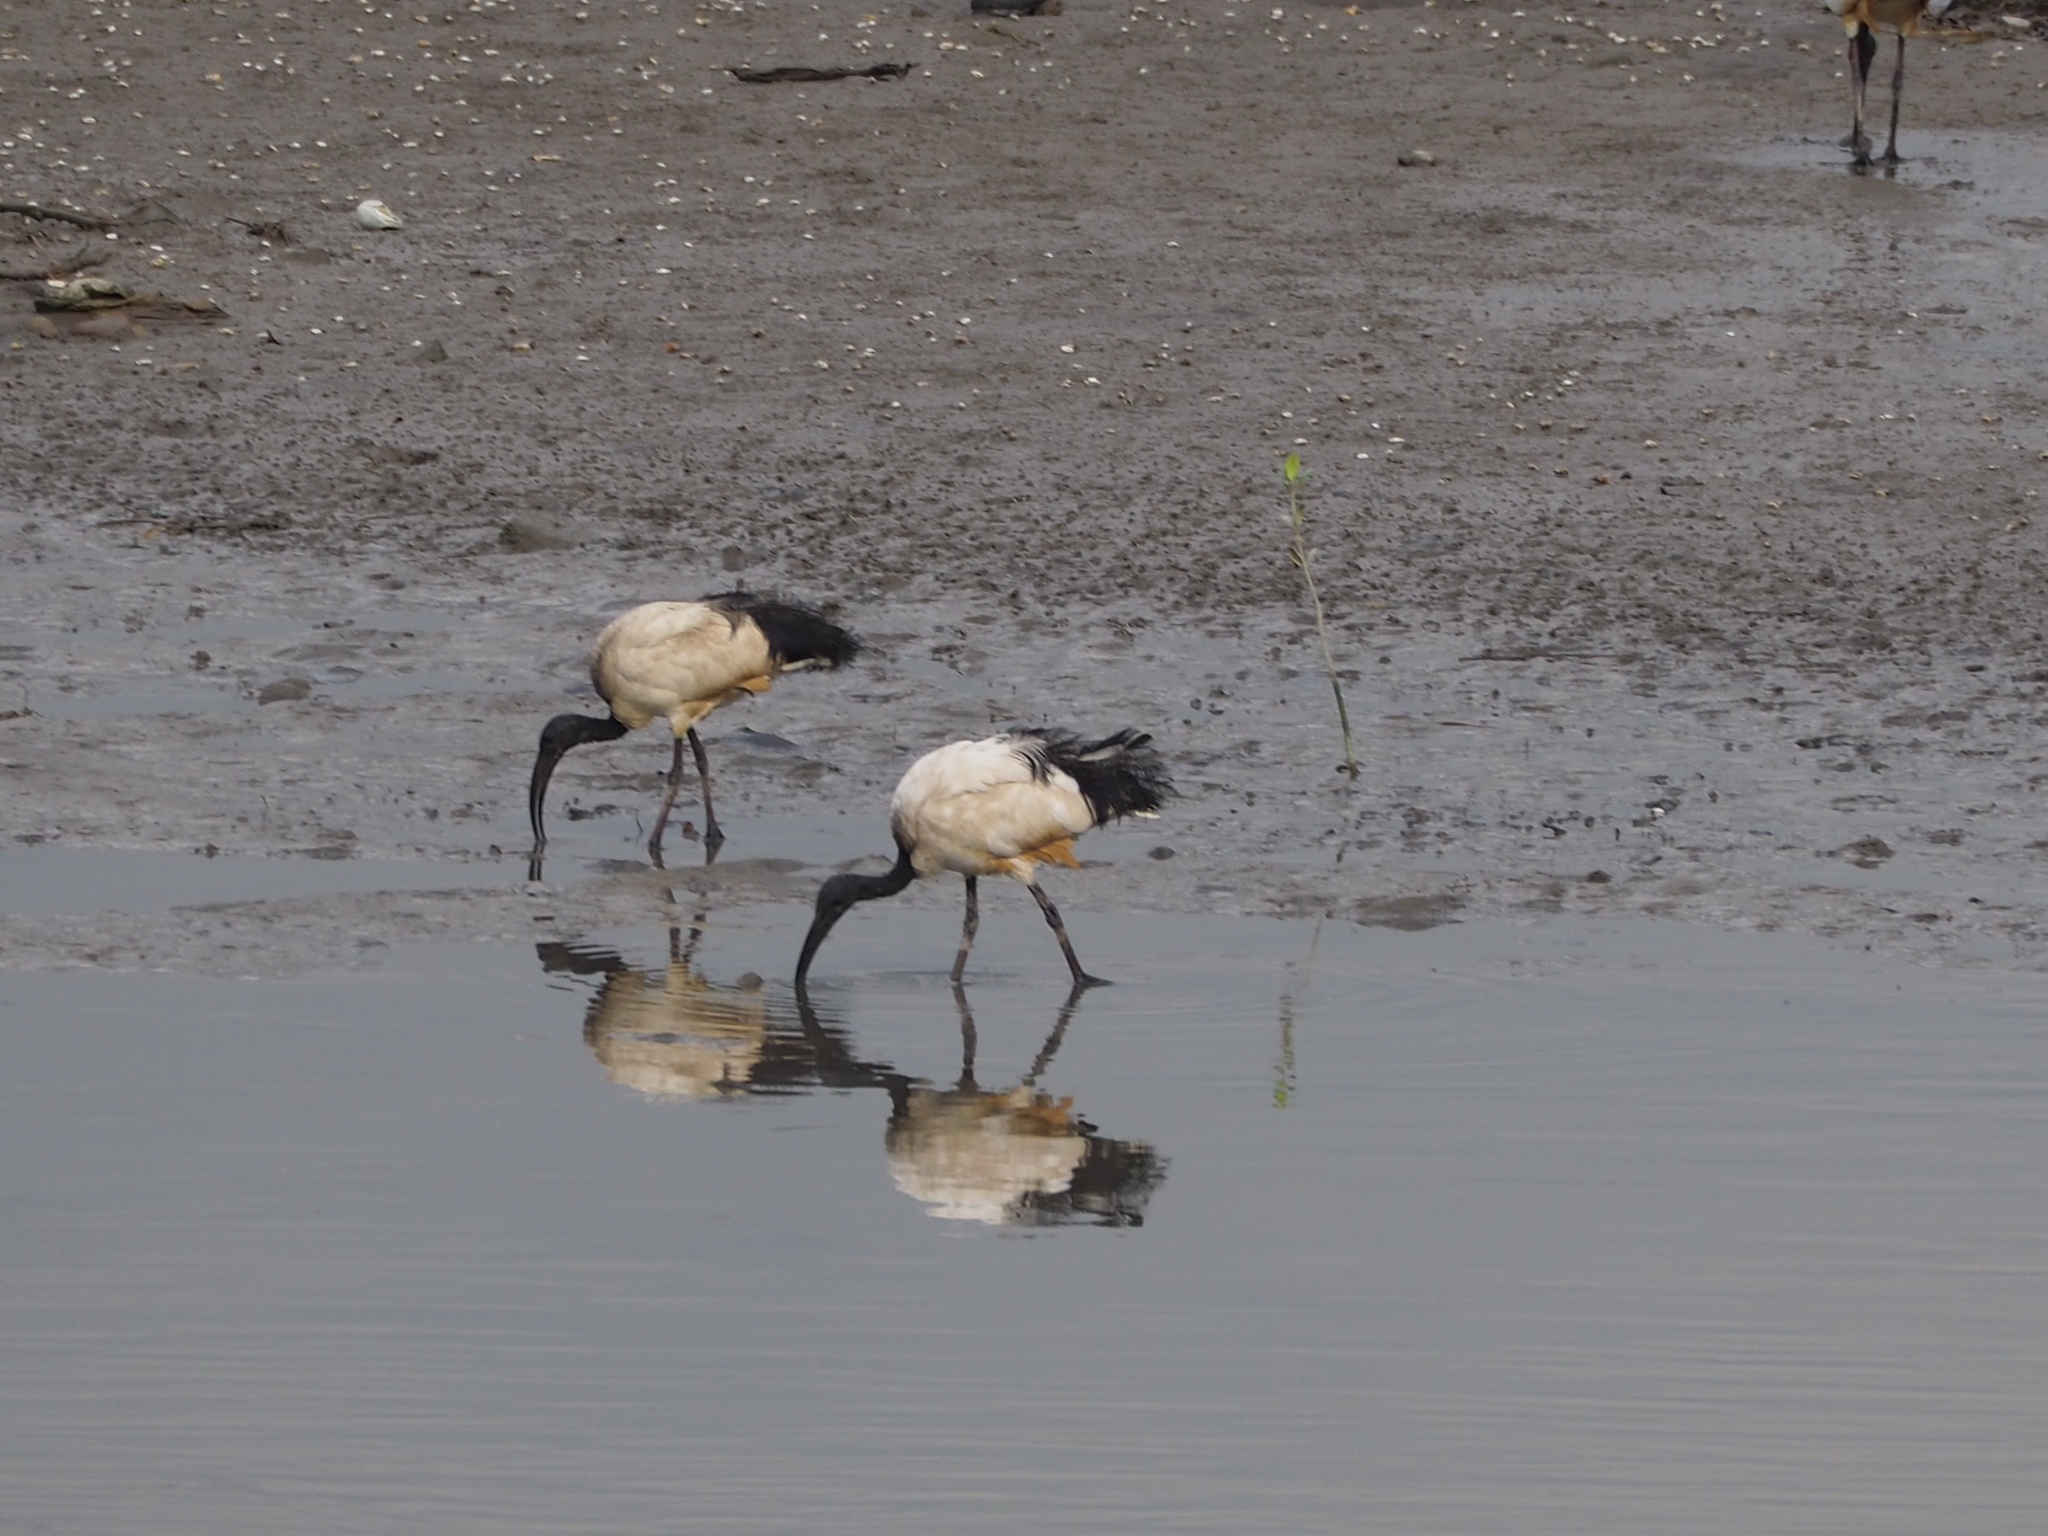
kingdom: Animalia
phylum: Chordata
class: Aves
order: Pelecaniformes
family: Threskiornithidae
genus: Threskiornis
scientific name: Threskiornis aethiopicus
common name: Sacred ibis
